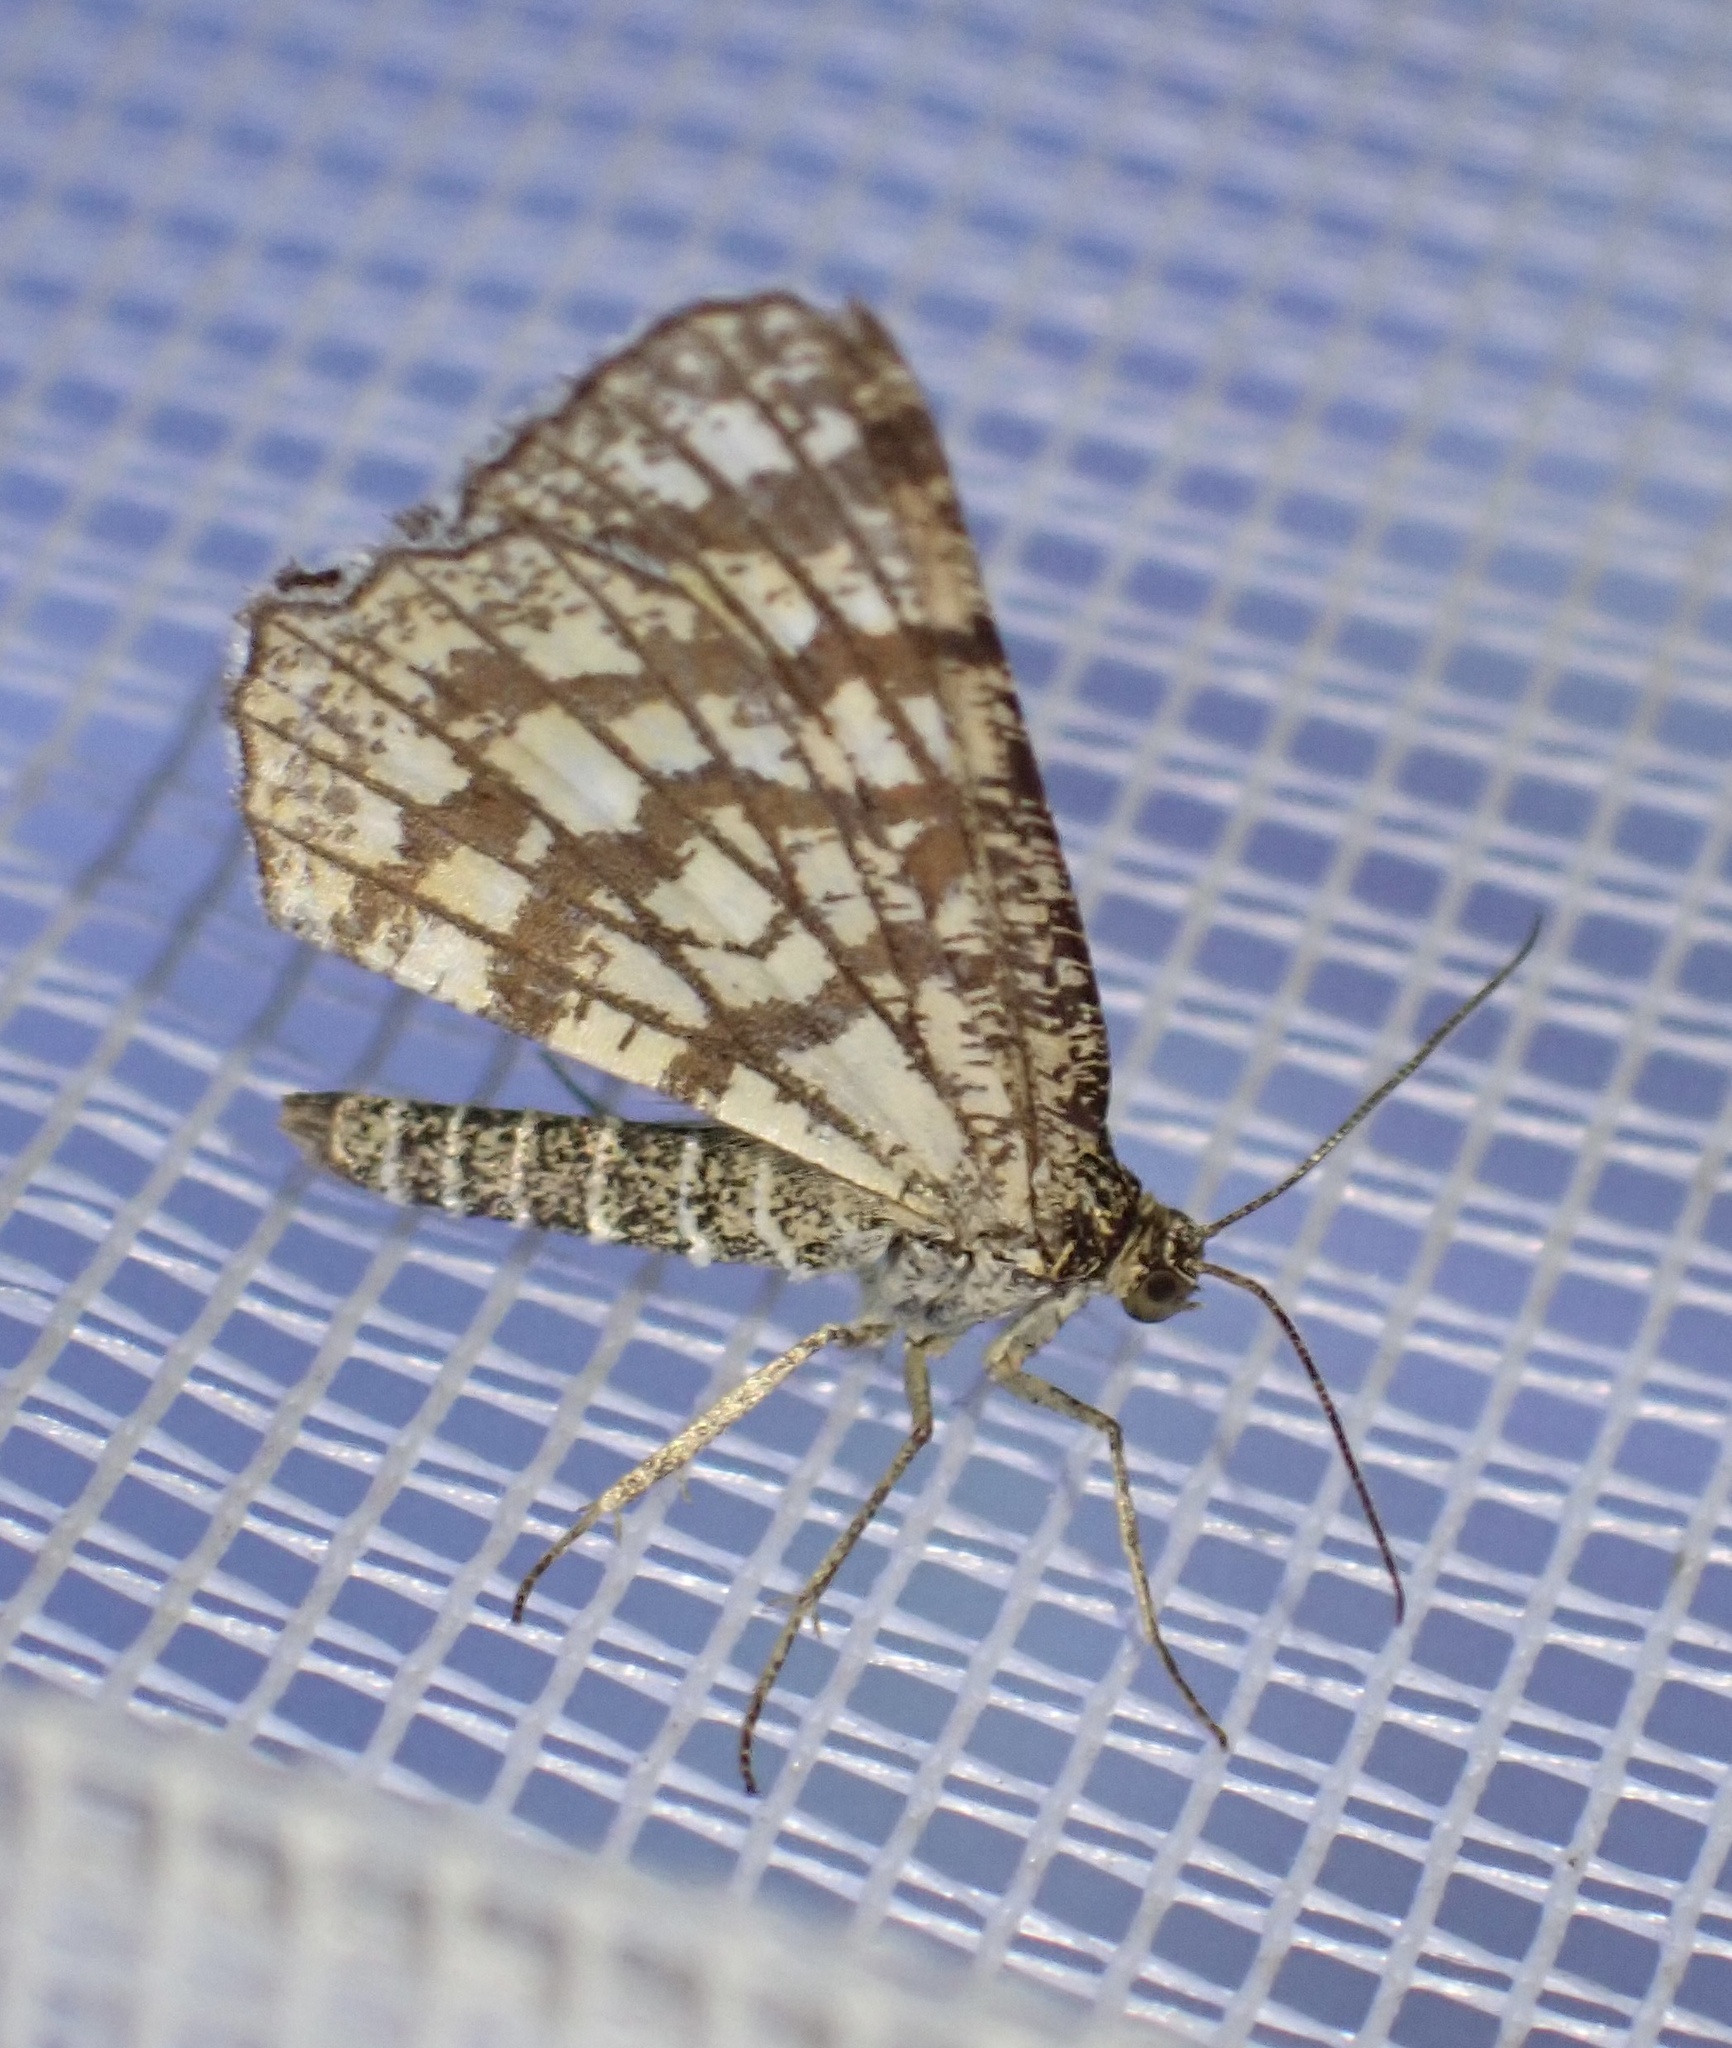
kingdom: Animalia
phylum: Arthropoda
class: Insecta
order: Lepidoptera
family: Geometridae
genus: Chiasmia
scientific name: Chiasmia clathrata
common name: Latticed heath
